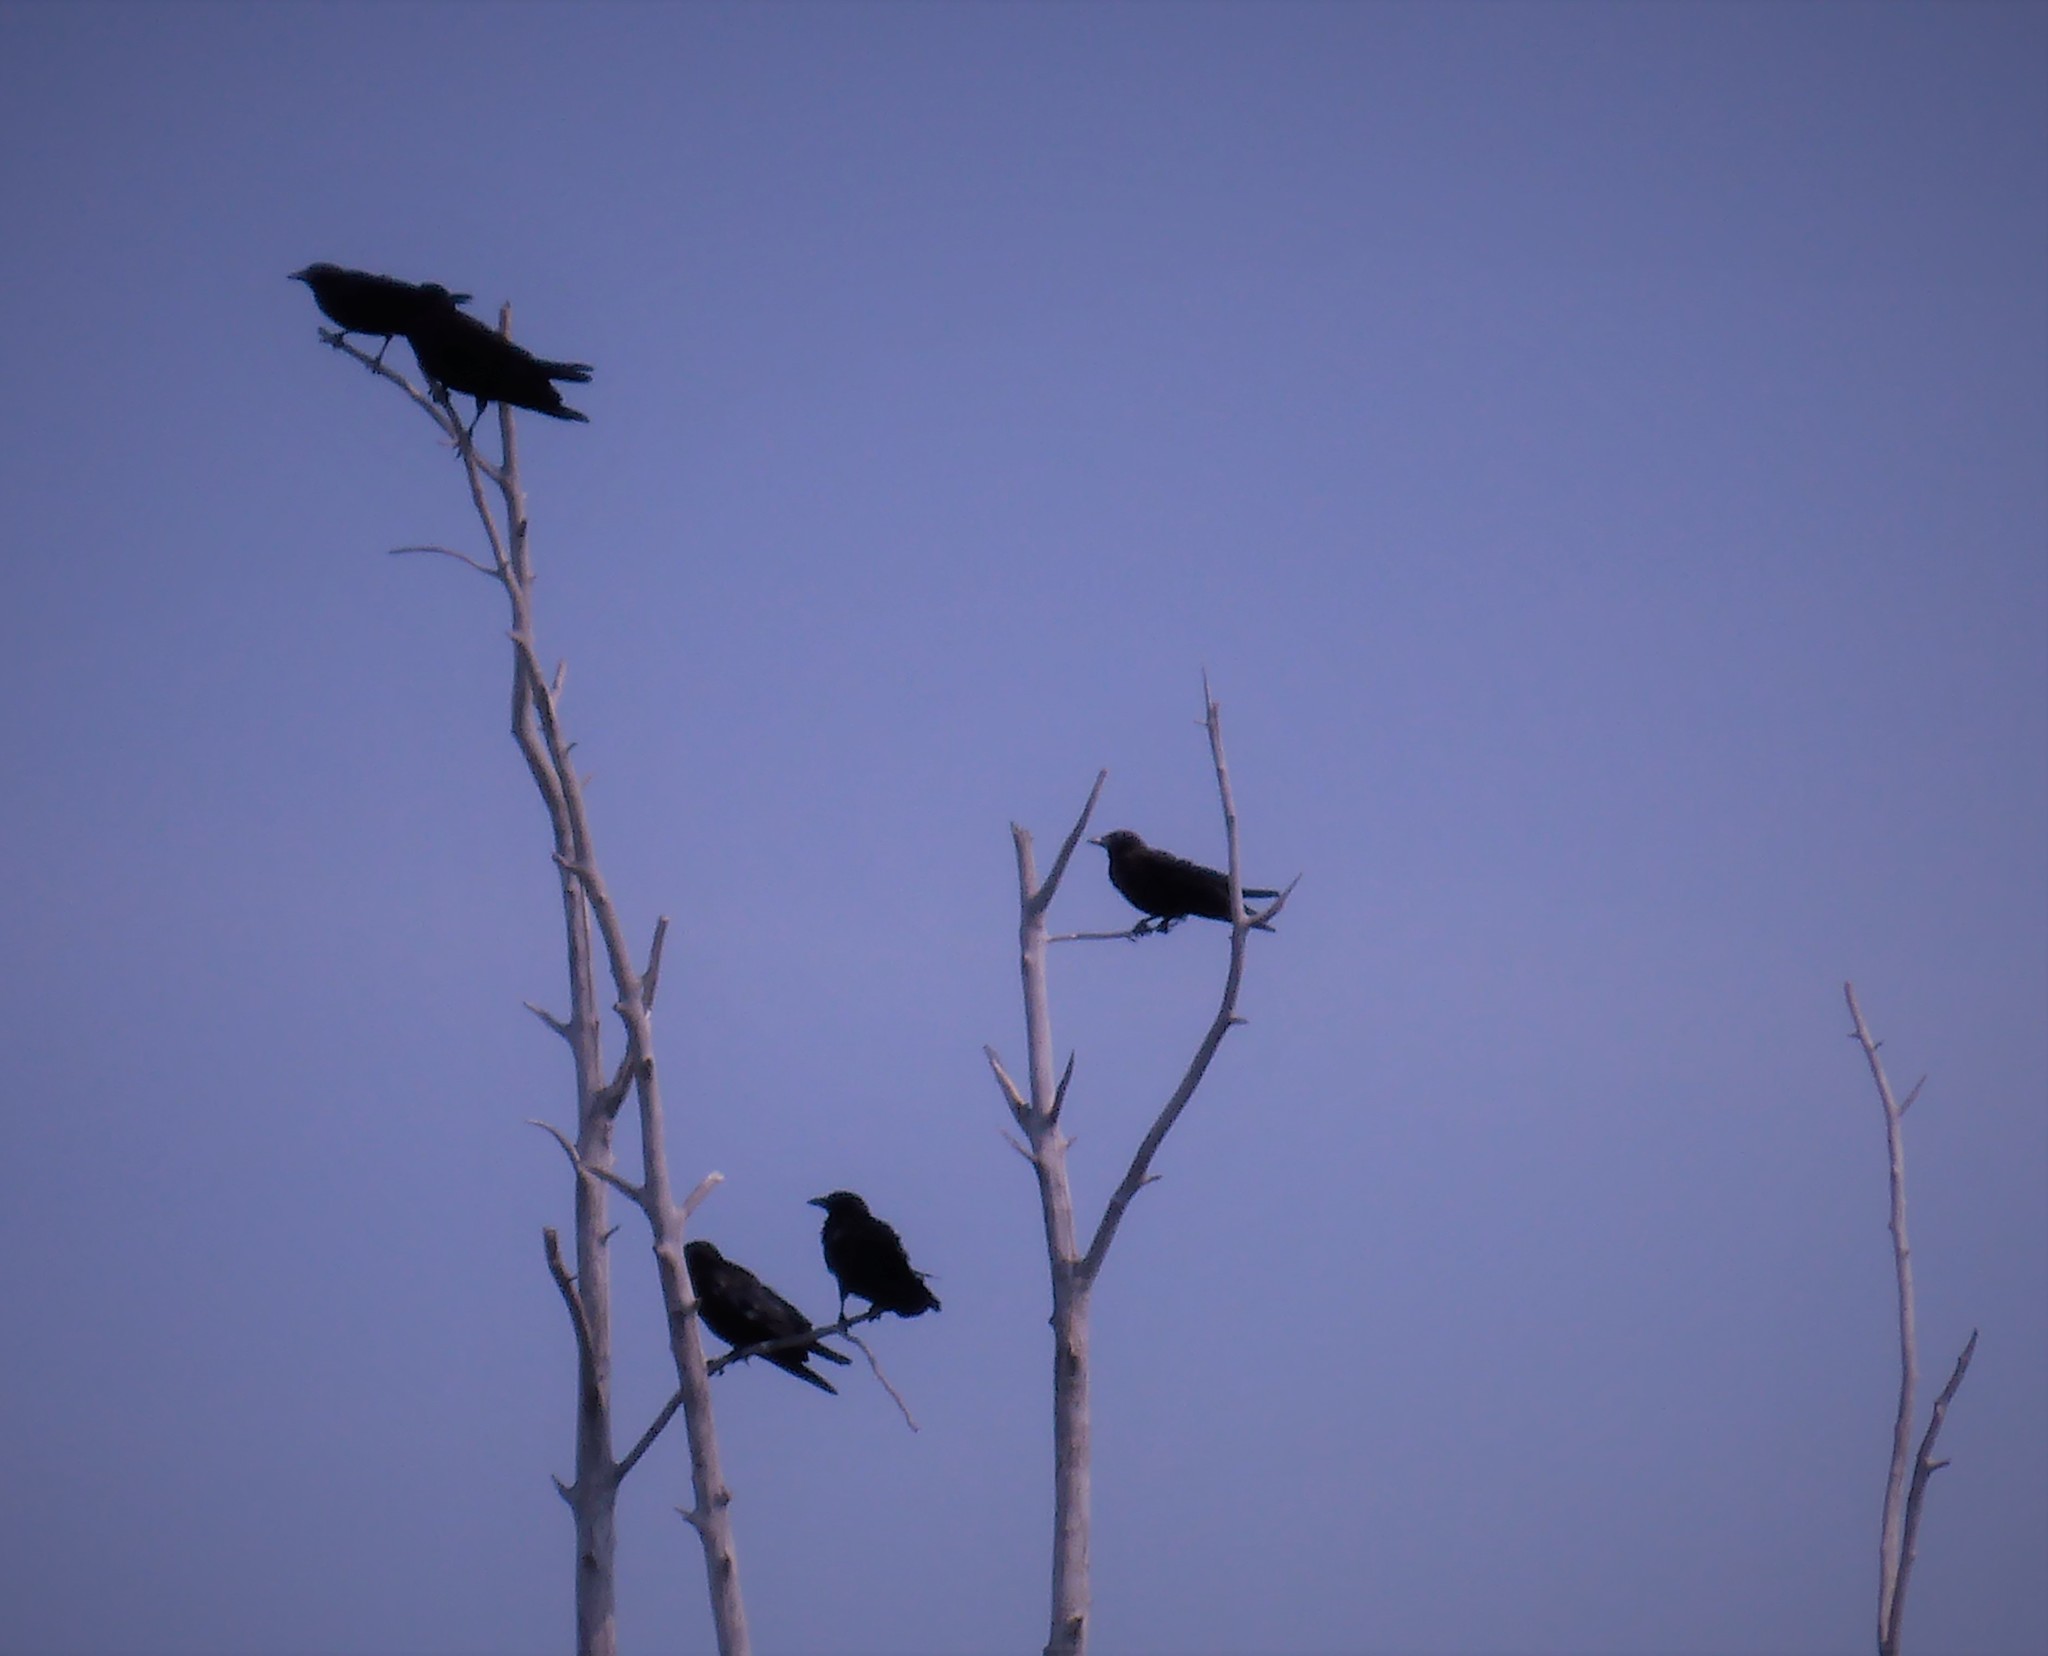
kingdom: Animalia
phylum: Chordata
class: Aves
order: Passeriformes
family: Corvidae
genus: Corvus
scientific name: Corvus brachyrhynchos
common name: American crow
